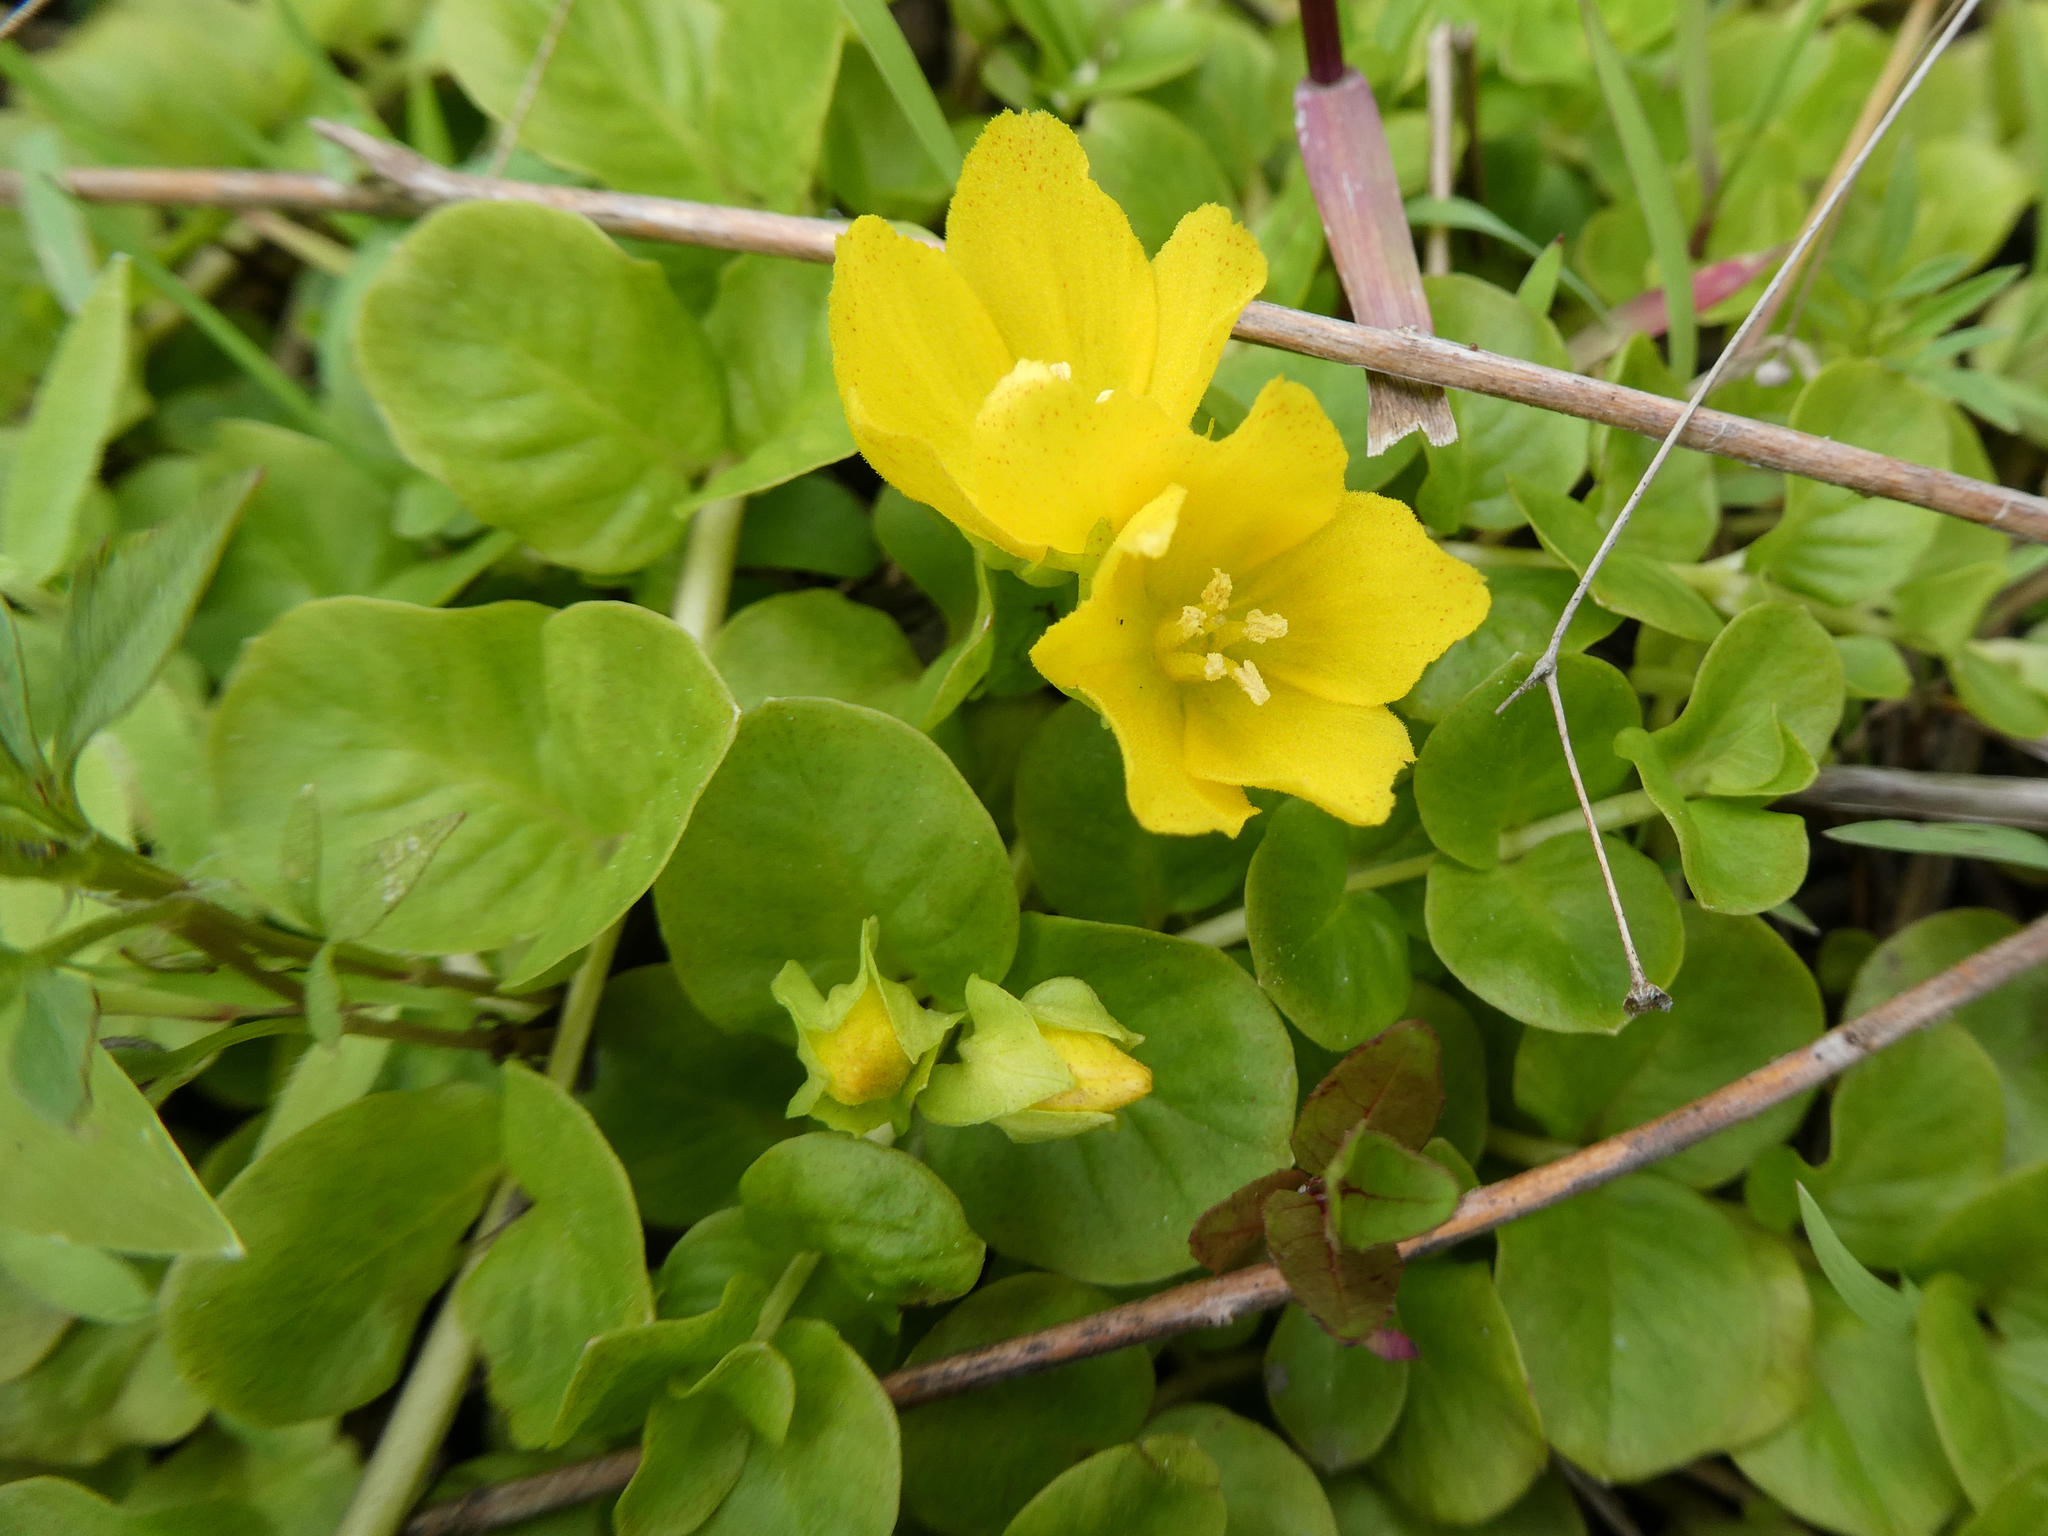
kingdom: Plantae
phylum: Tracheophyta
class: Magnoliopsida
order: Ericales
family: Primulaceae
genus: Lysimachia
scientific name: Lysimachia nummularia
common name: Moneywort
